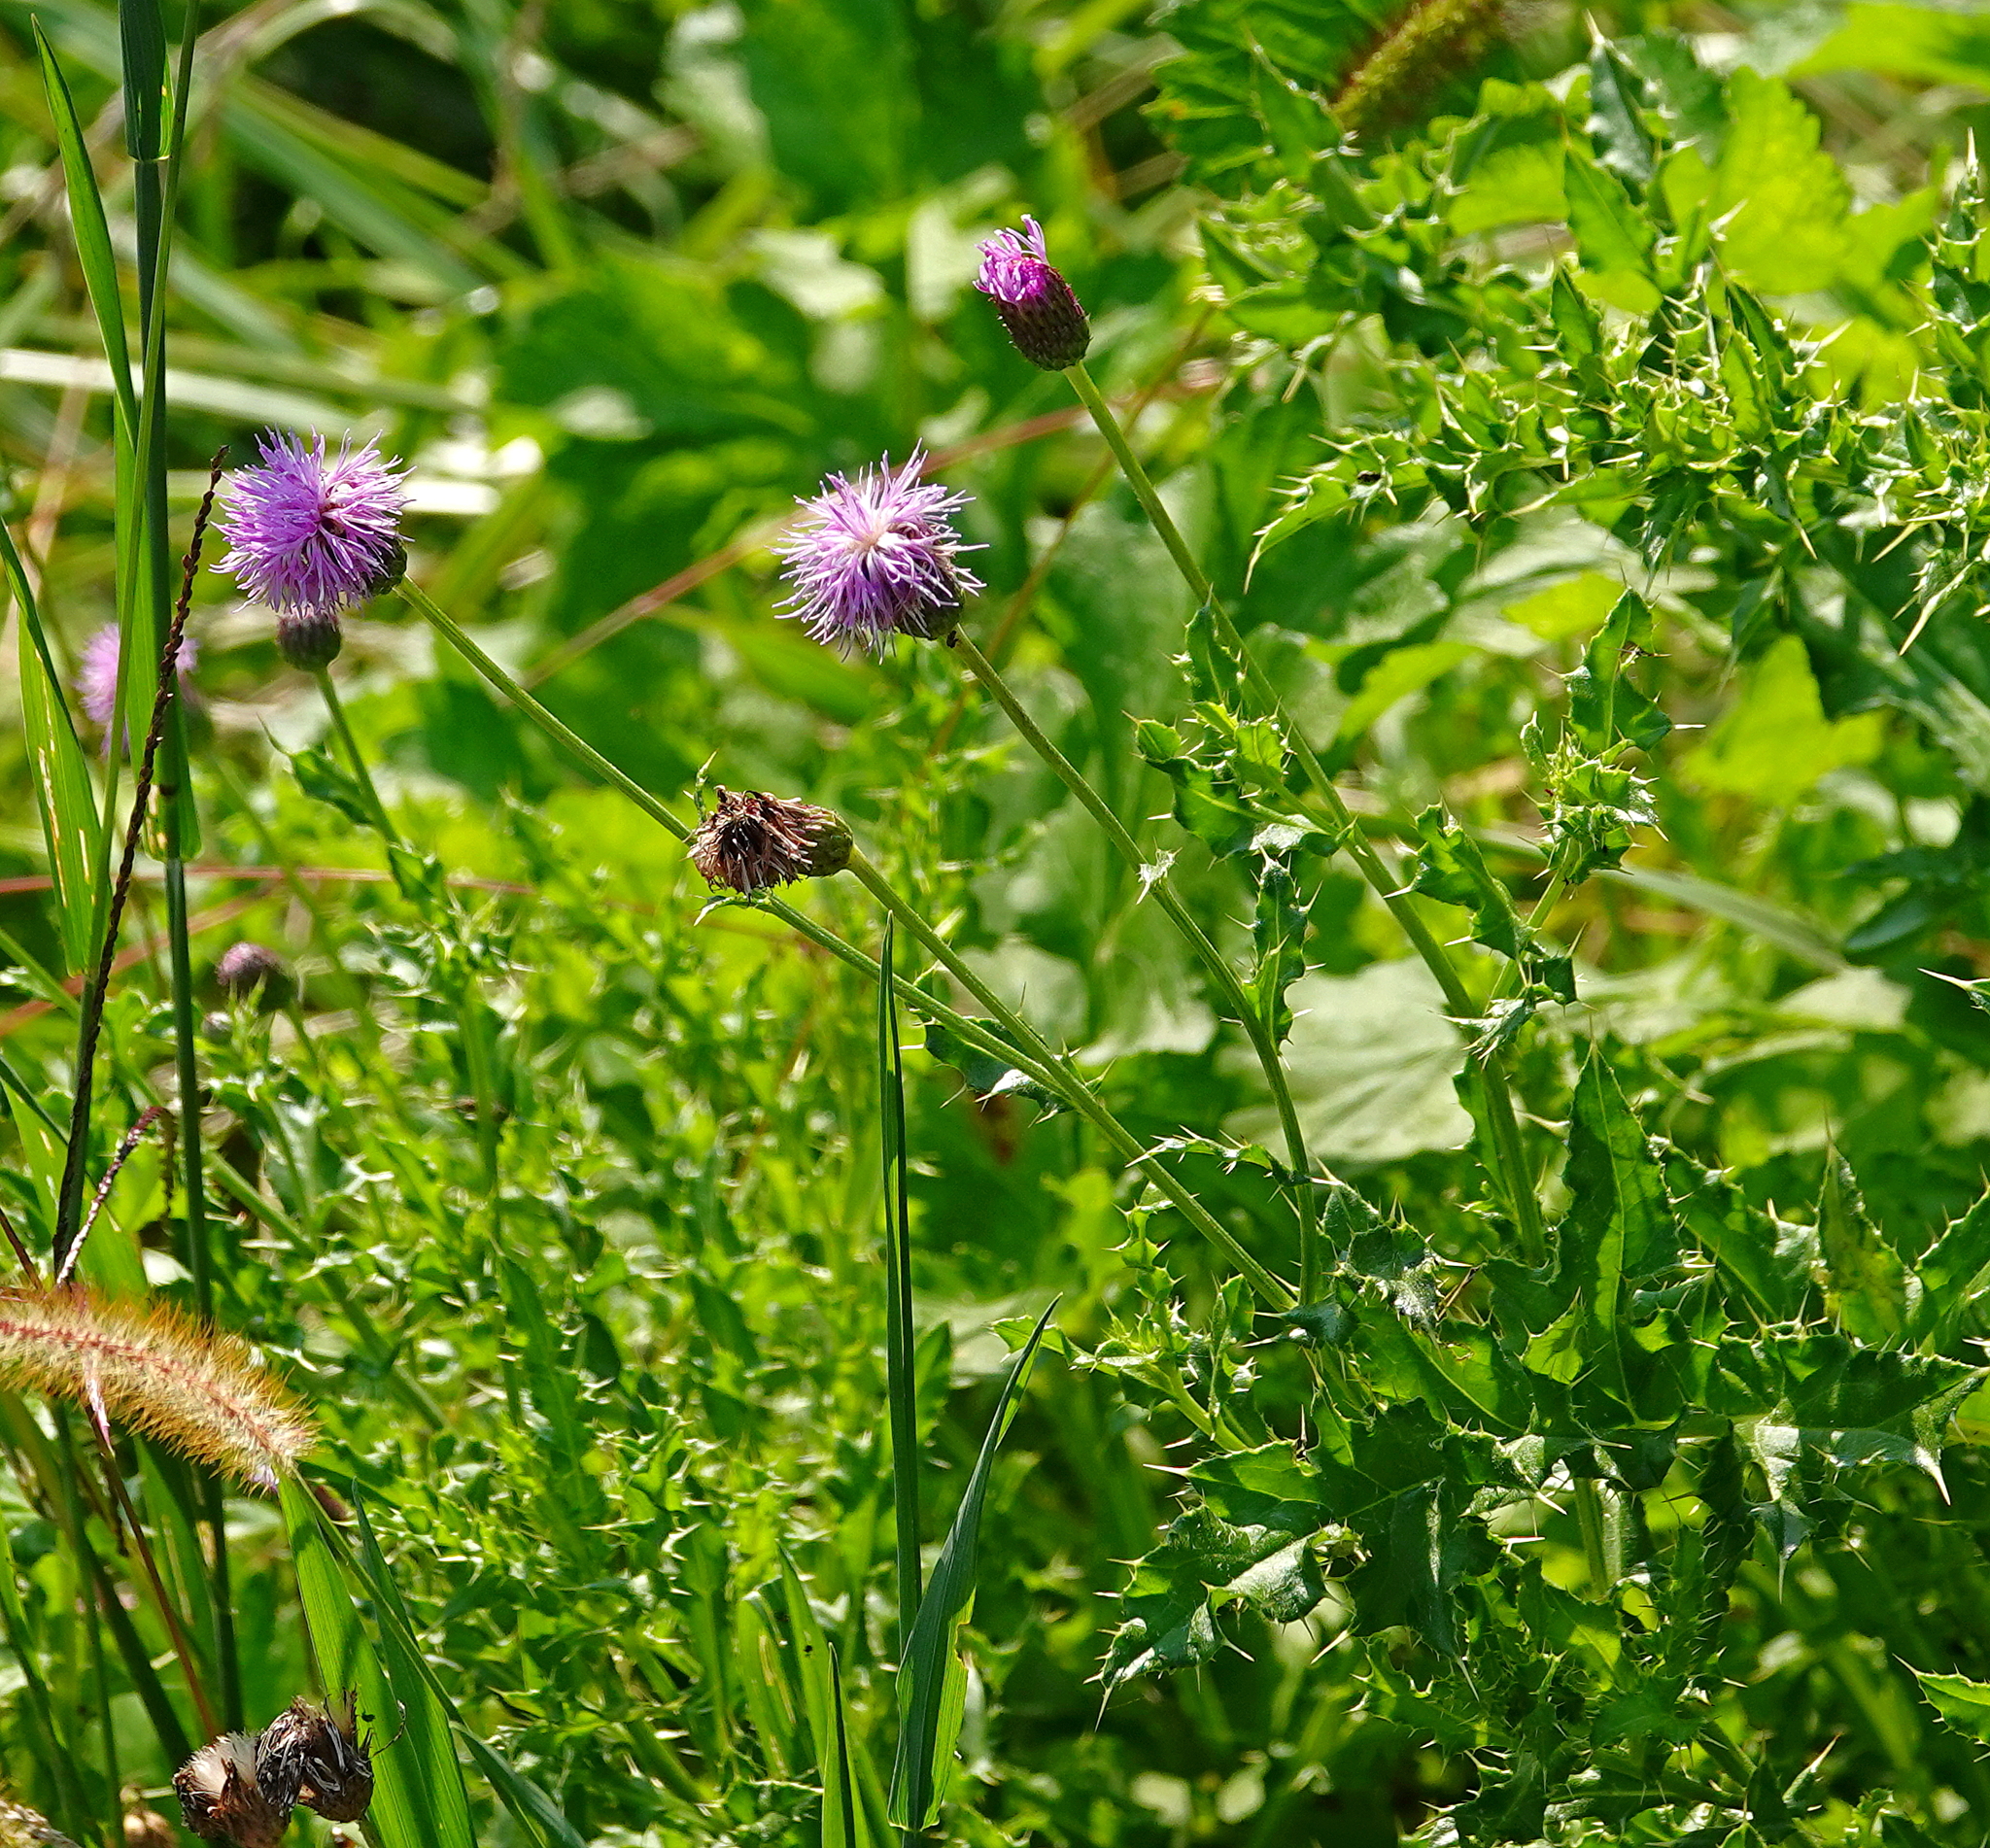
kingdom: Plantae
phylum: Tracheophyta
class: Magnoliopsida
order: Asterales
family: Asteraceae
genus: Cirsium
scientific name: Cirsium arvense
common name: Creeping thistle
